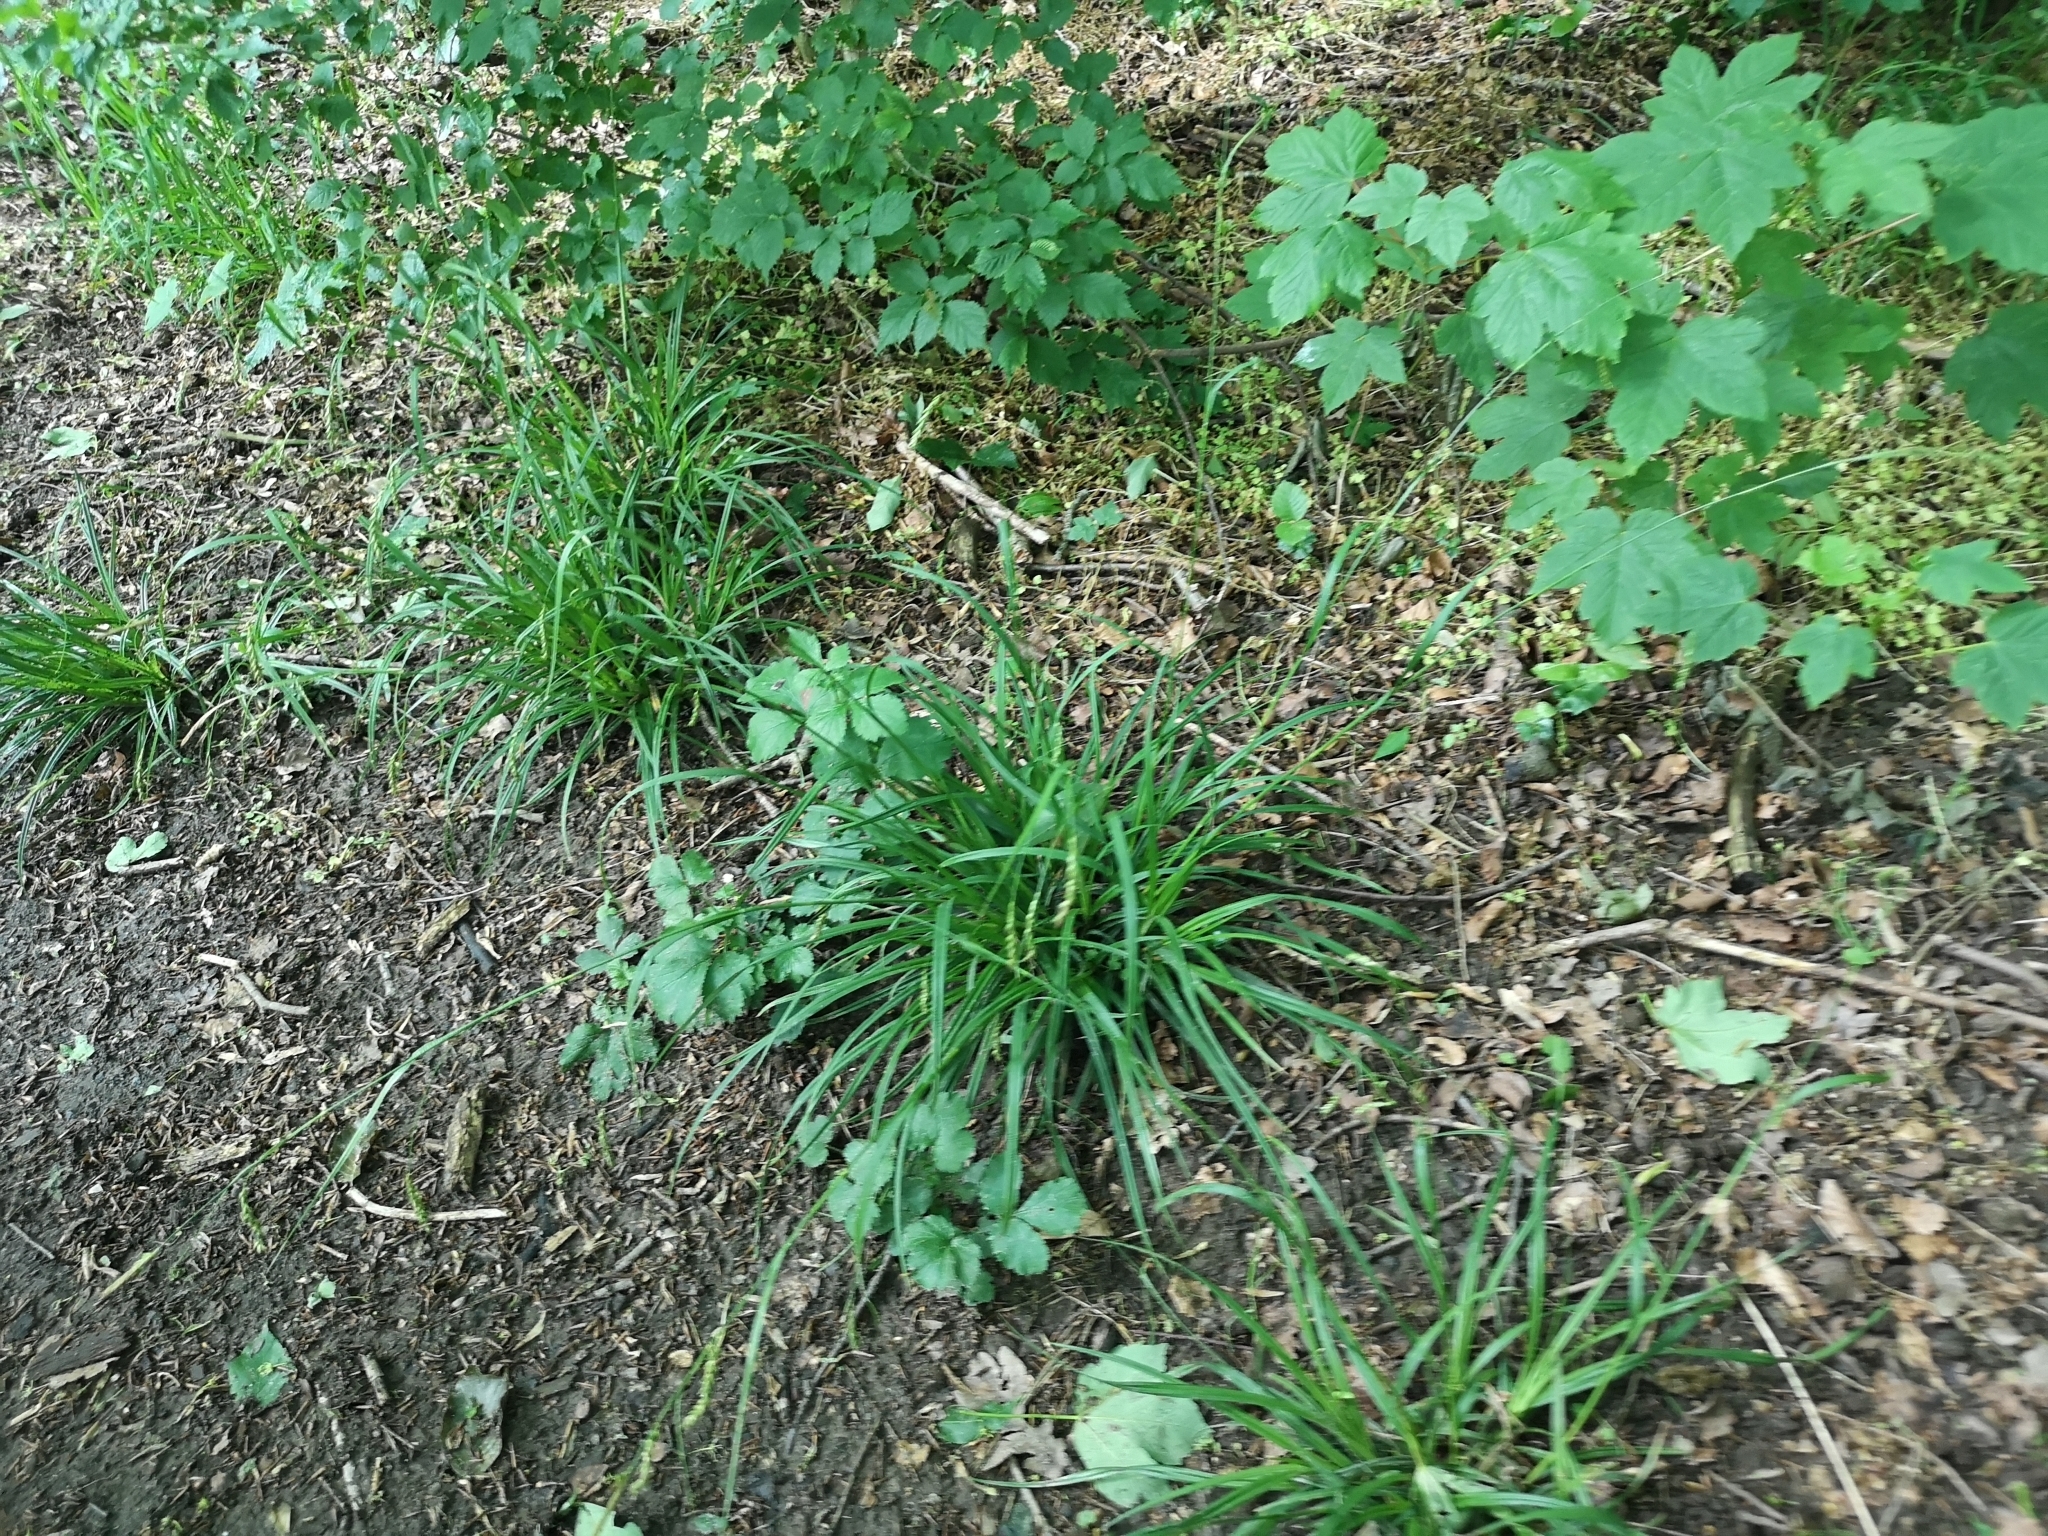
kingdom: Plantae
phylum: Tracheophyta
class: Liliopsida
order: Poales
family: Cyperaceae
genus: Carex
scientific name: Carex sylvatica
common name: Wood-sedge
